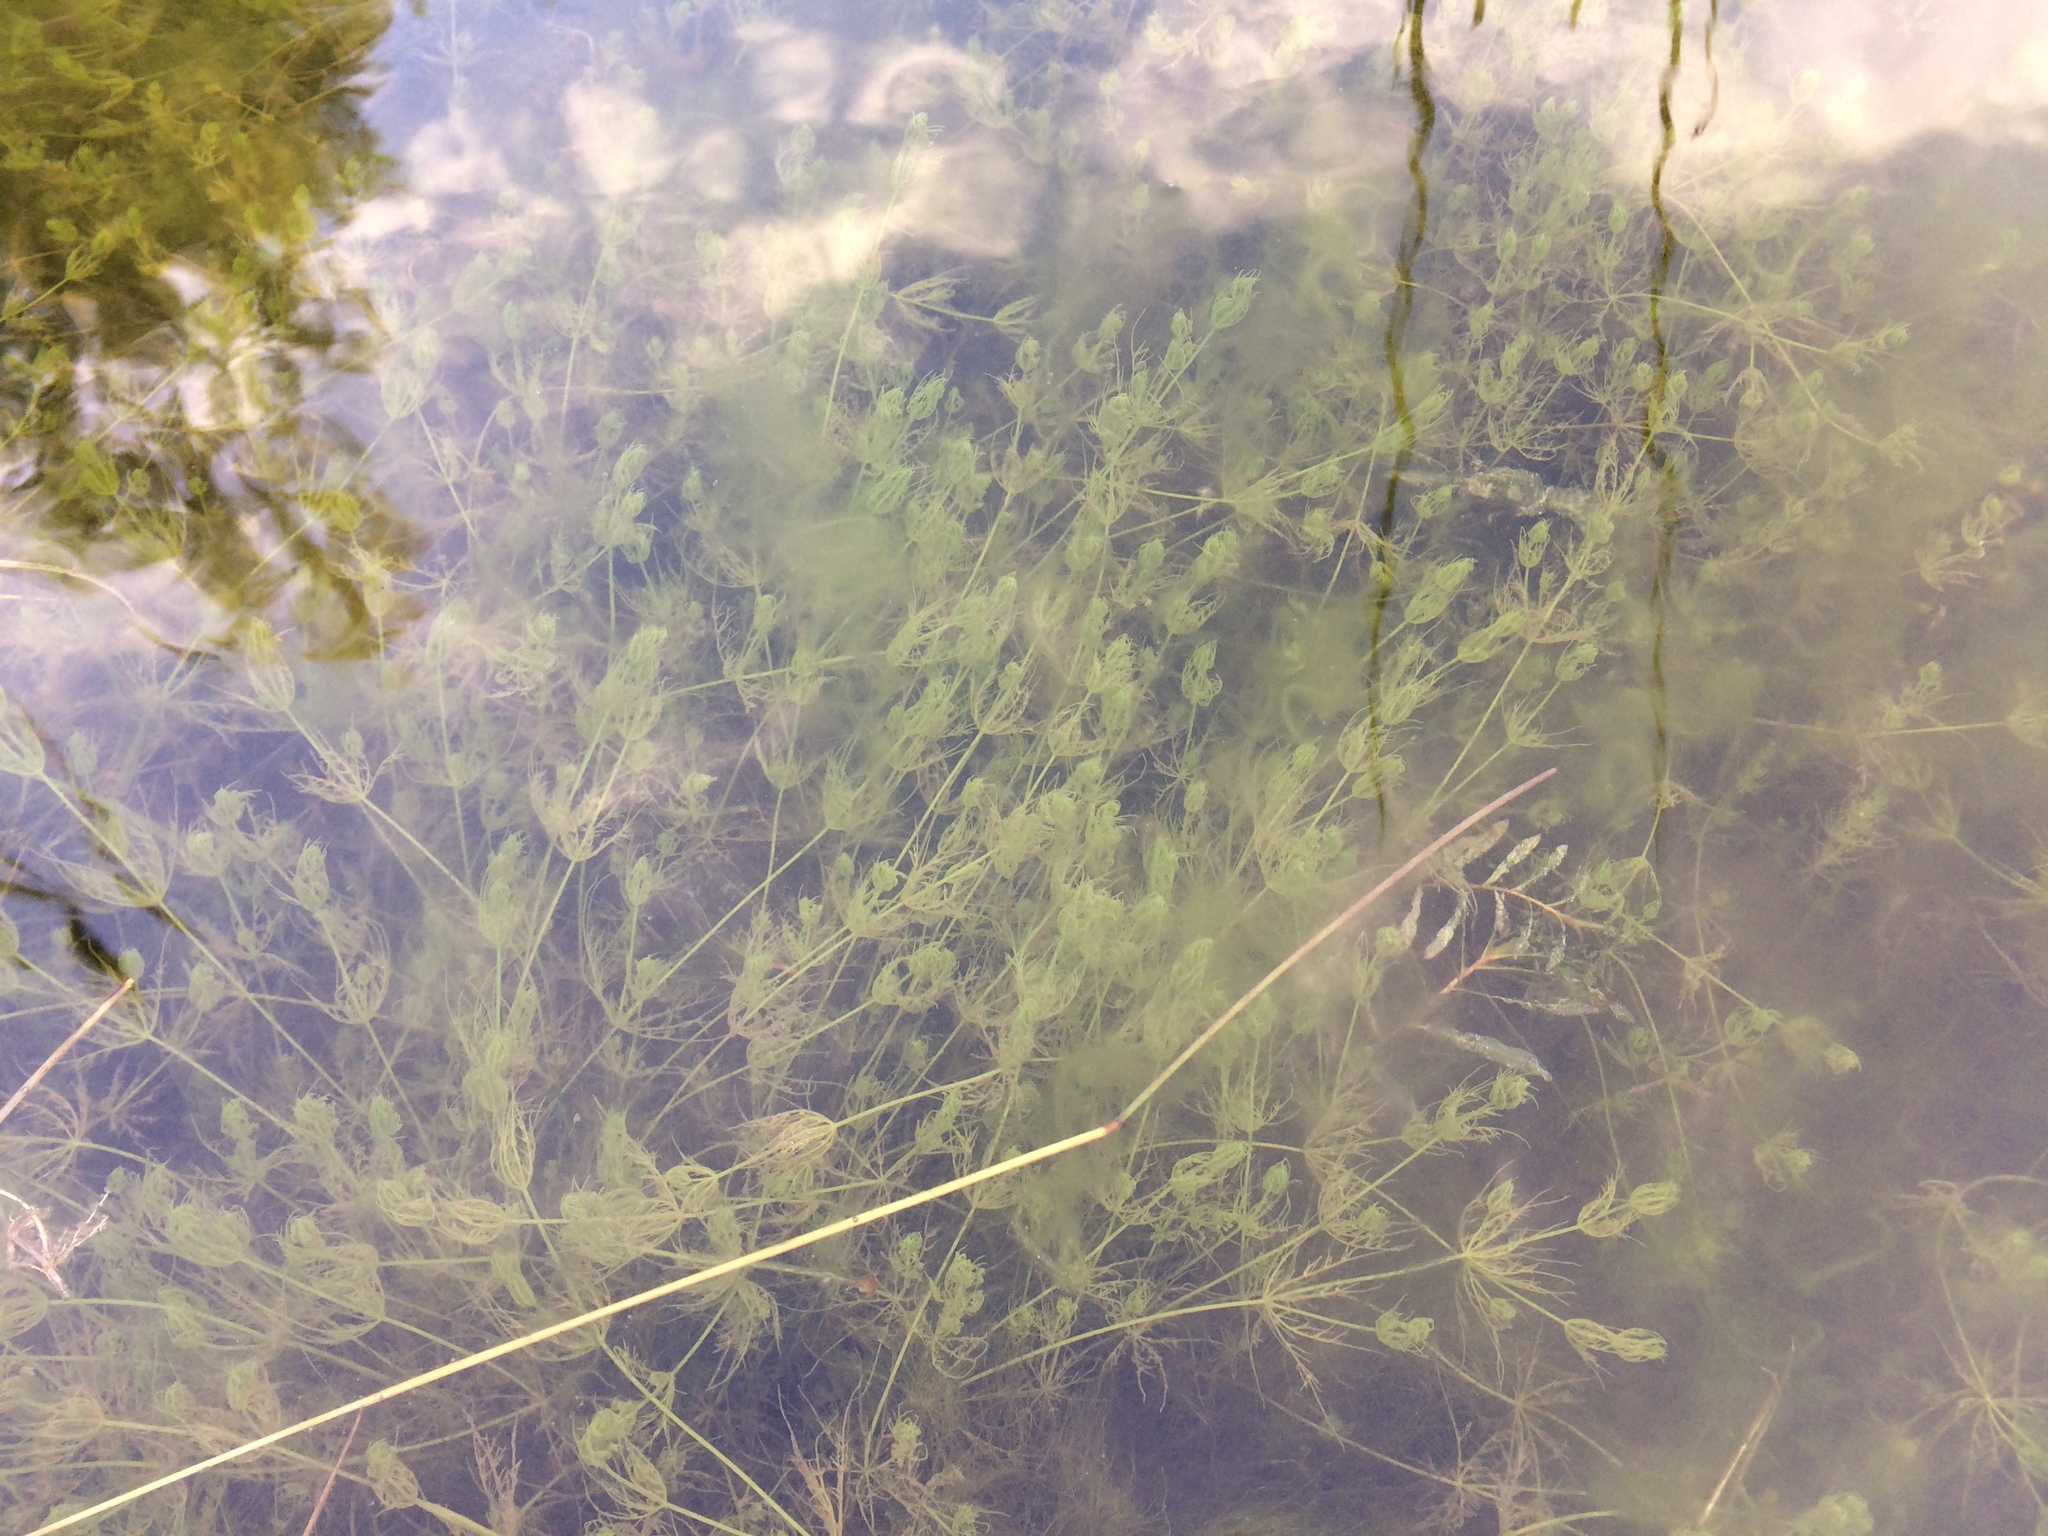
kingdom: Plantae
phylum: Charophyta
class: Charophyceae
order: Charales
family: Characeae
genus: Chara
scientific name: Chara vulgaris
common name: Common stonewort
